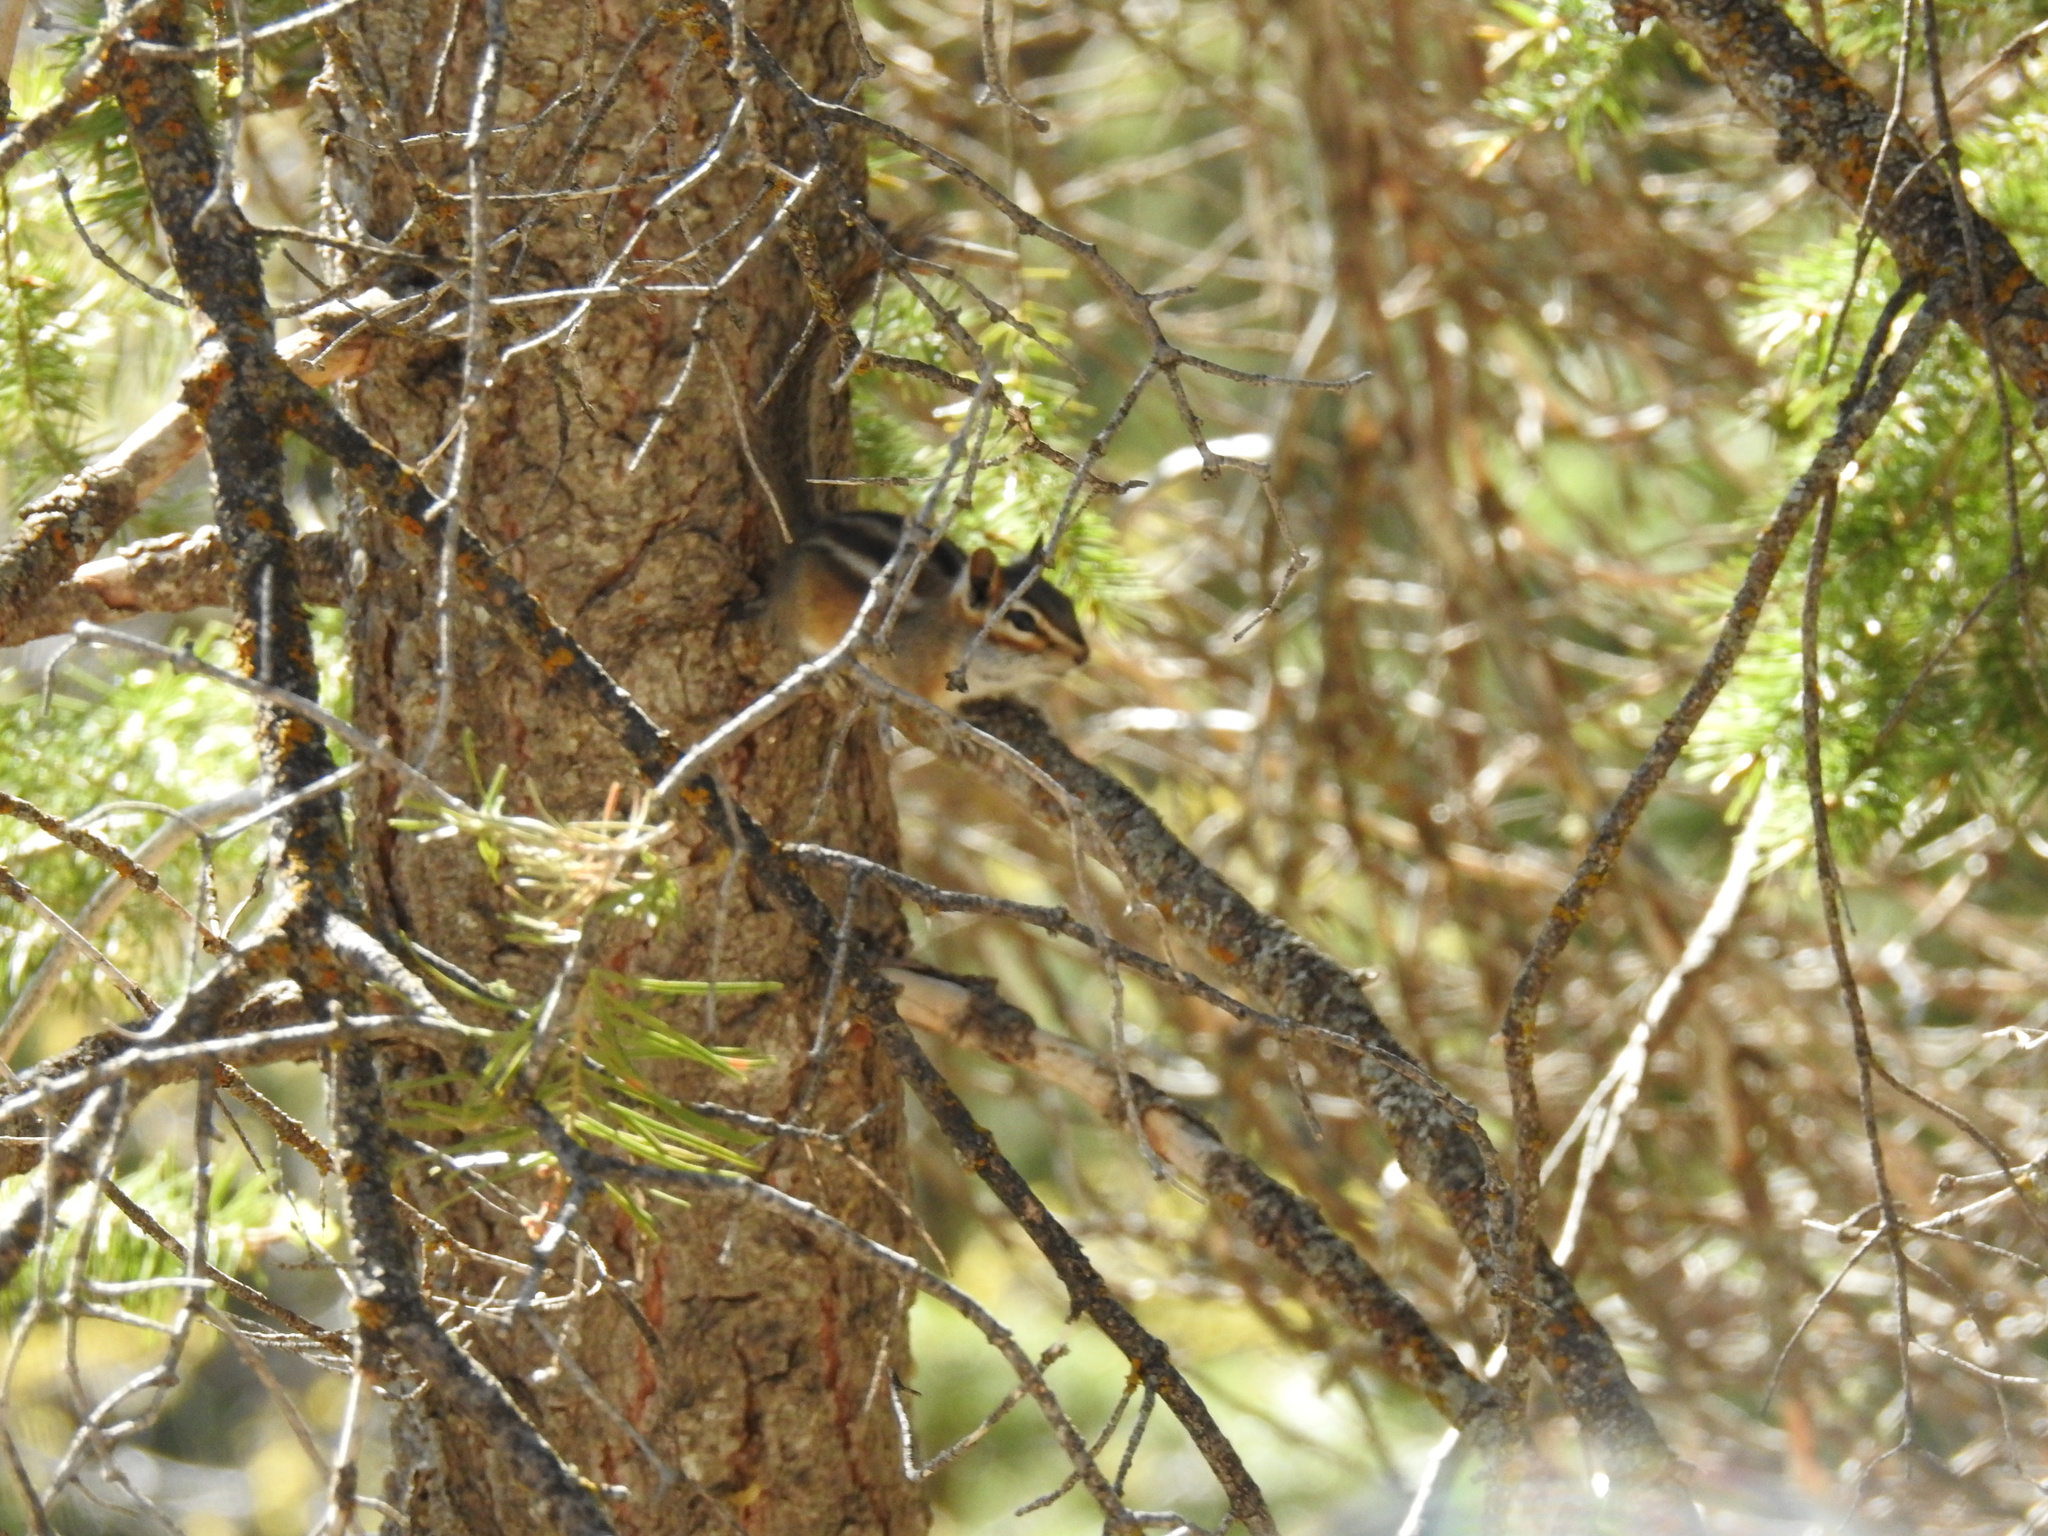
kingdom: Animalia
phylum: Chordata
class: Mammalia
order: Rodentia
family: Sciuridae
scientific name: Sciuridae
